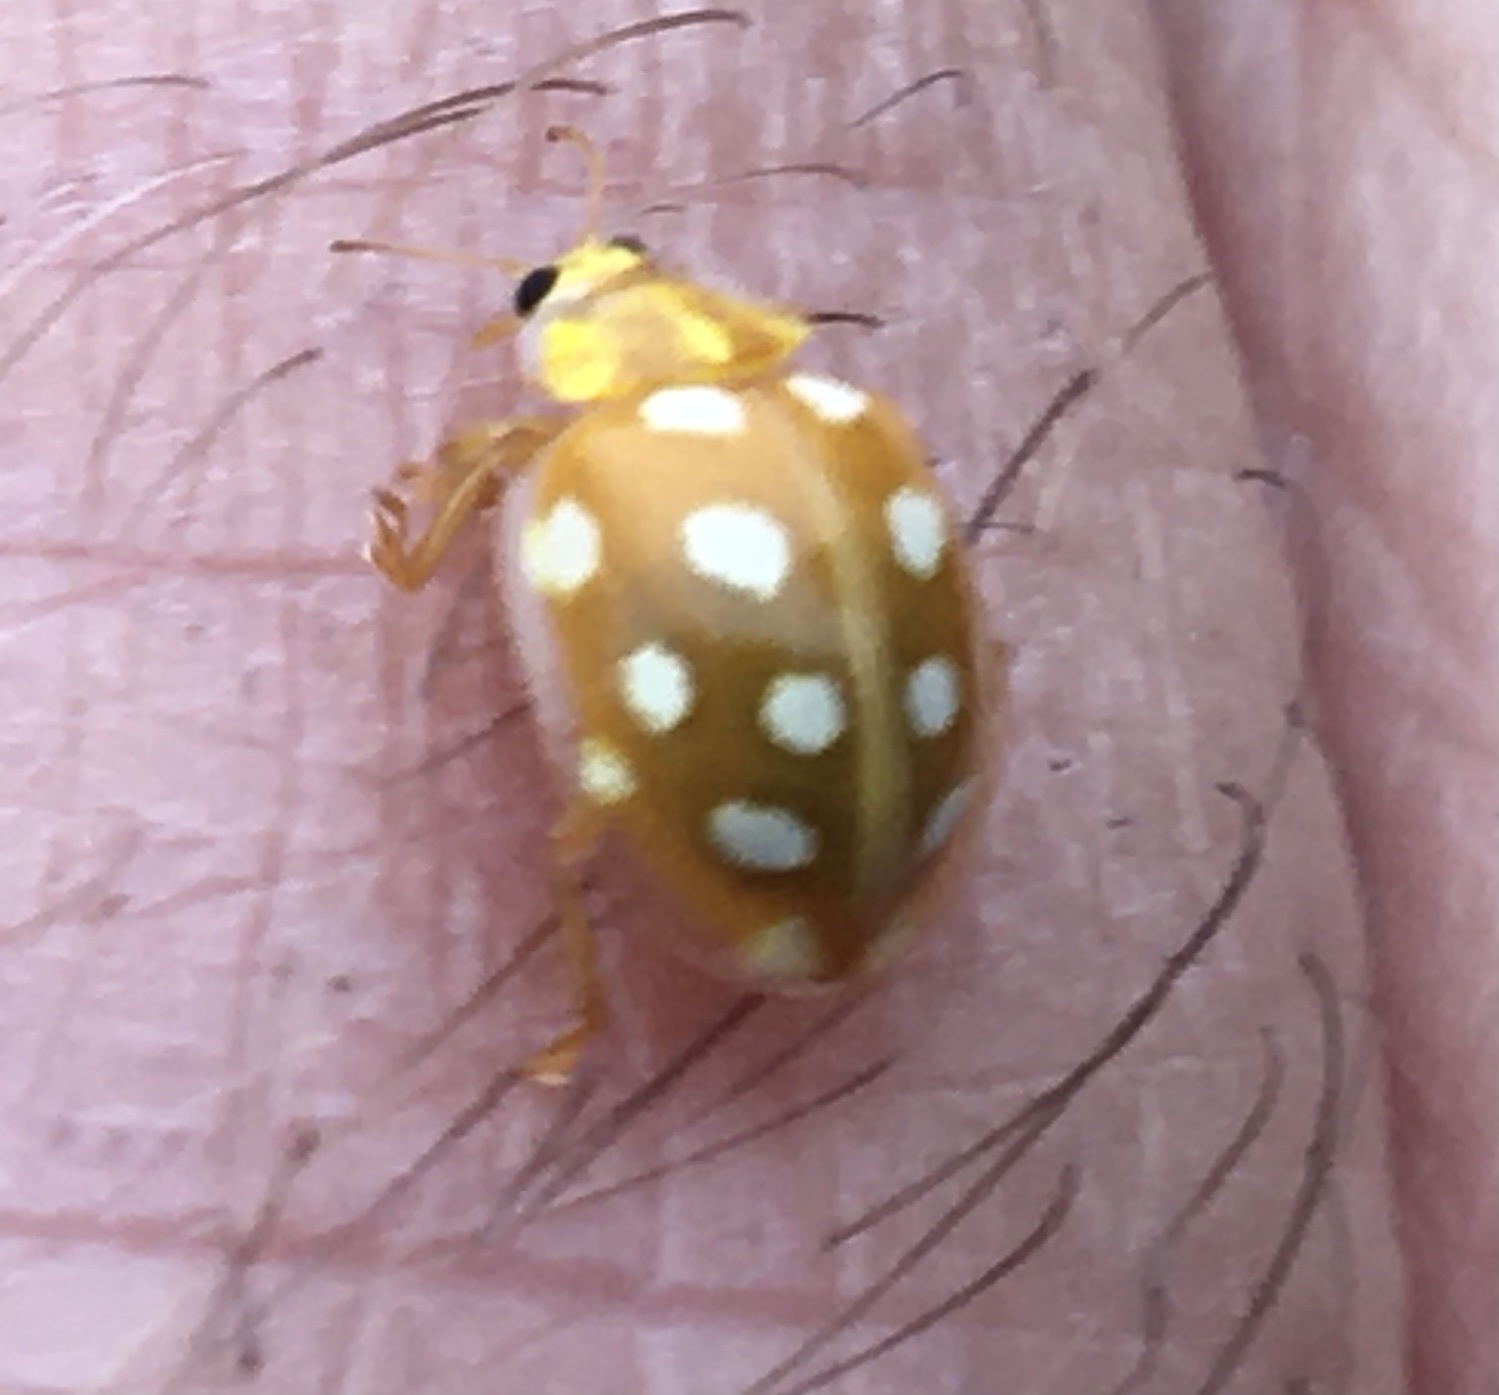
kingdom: Animalia
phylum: Arthropoda
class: Insecta
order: Coleoptera
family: Coccinellidae
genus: Halyzia
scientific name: Halyzia sedecimguttata
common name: Orange ladybird
